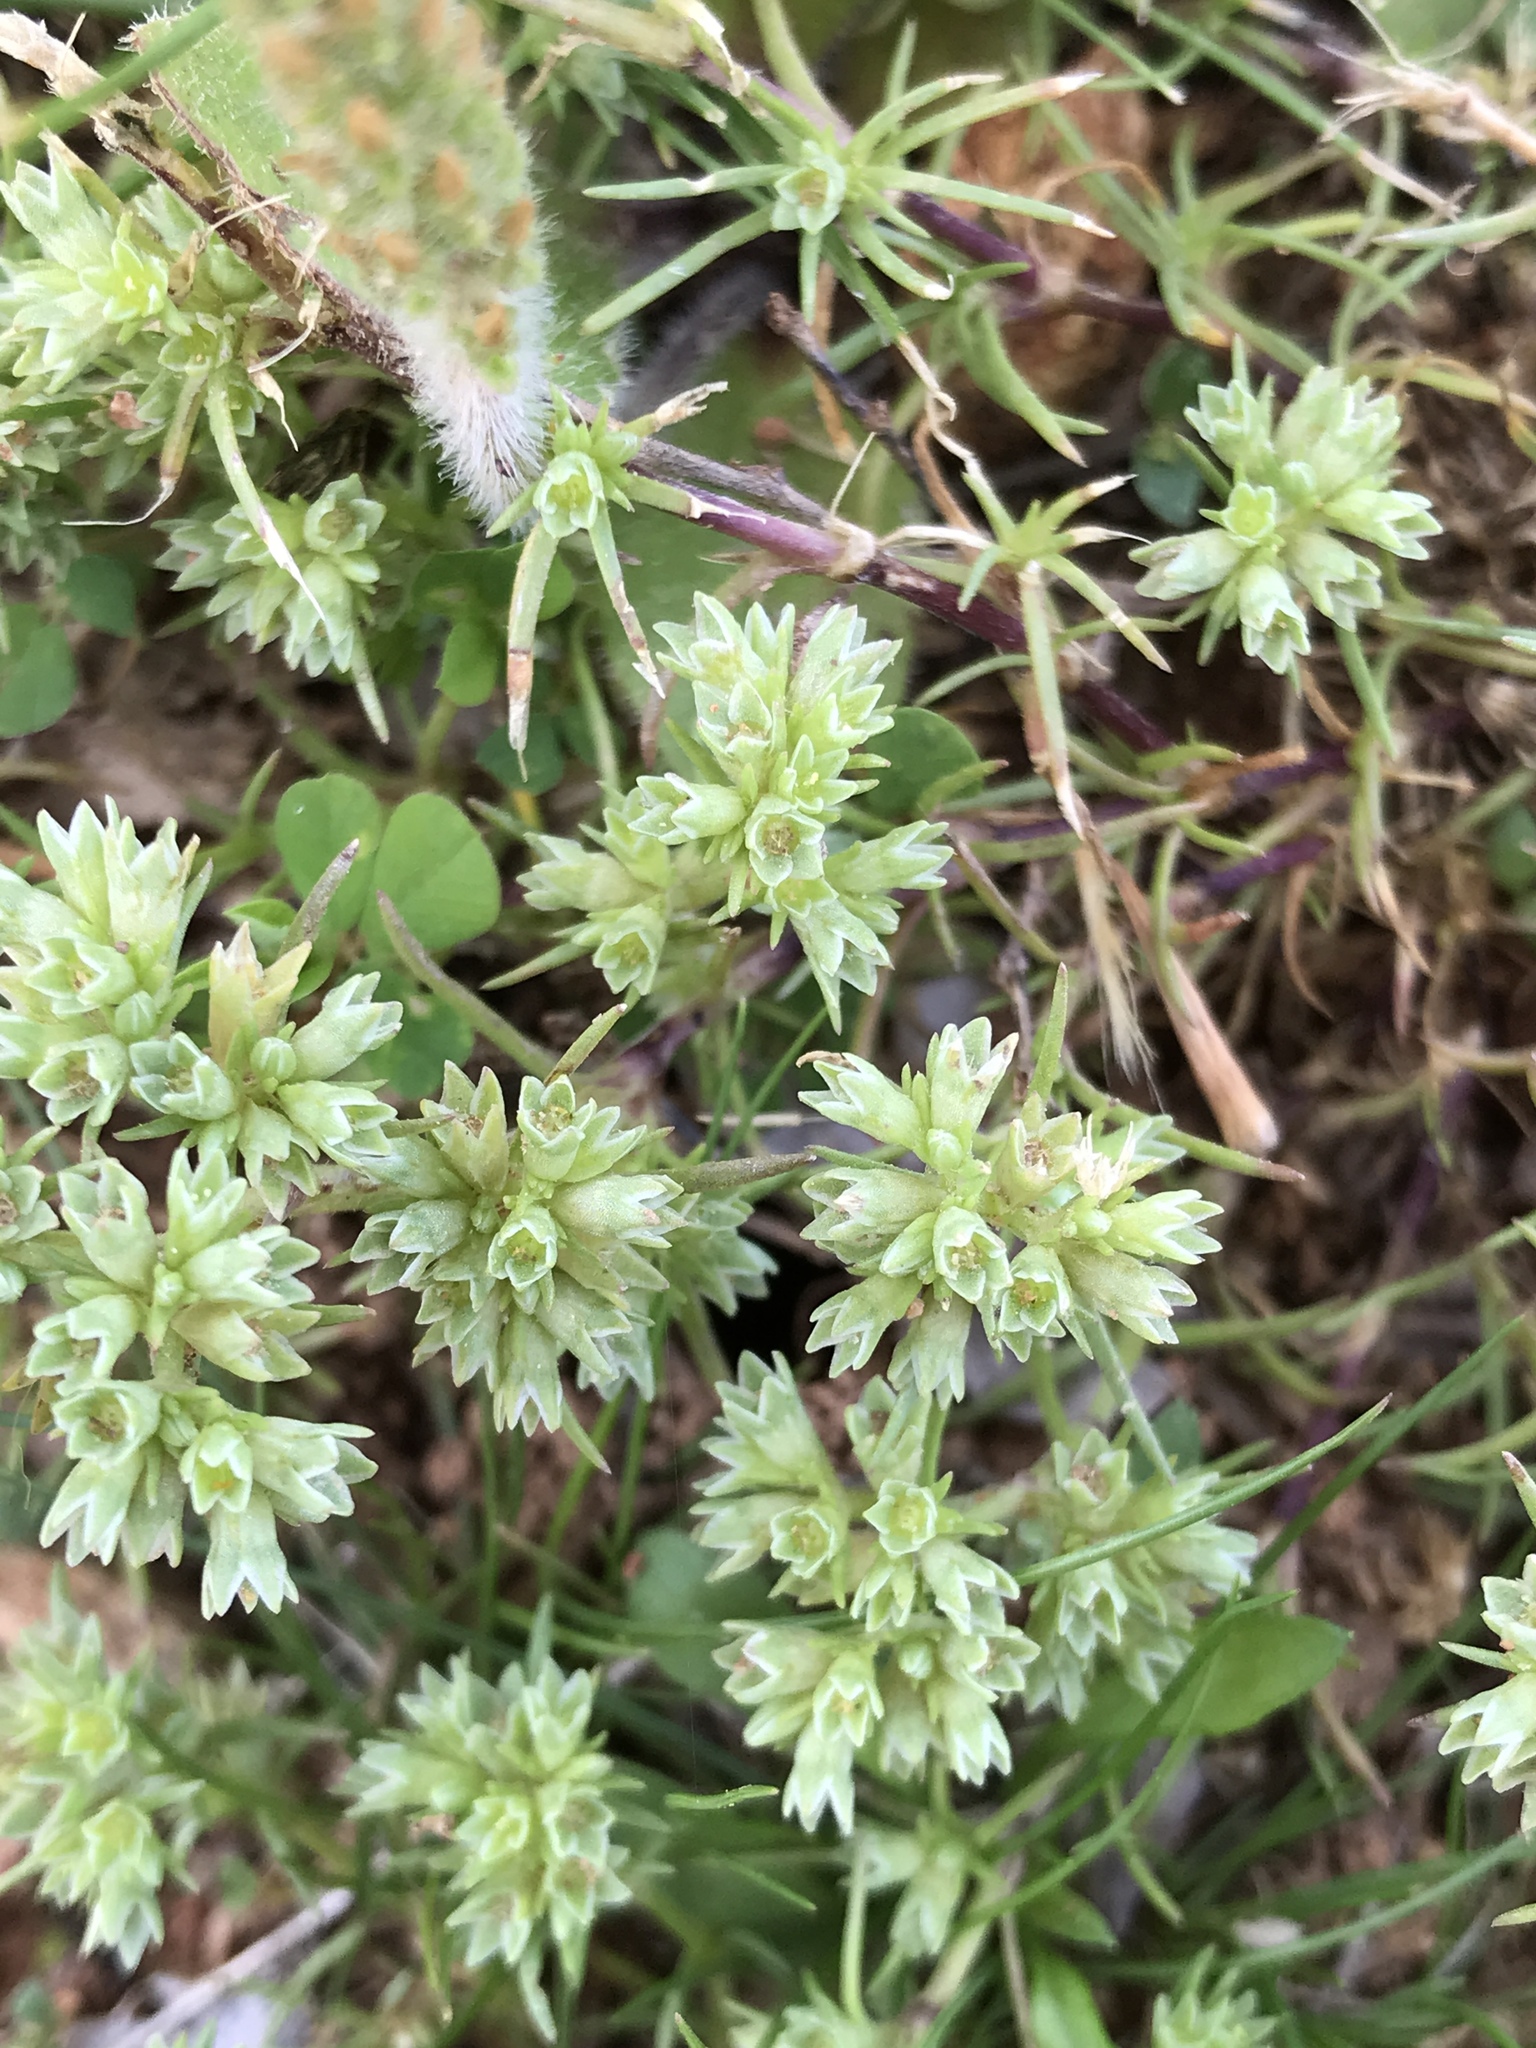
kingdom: Plantae
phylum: Tracheophyta
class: Magnoliopsida
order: Caryophyllales
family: Caryophyllaceae
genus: Scleranthus
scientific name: Scleranthus annuus
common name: Annual knawel
